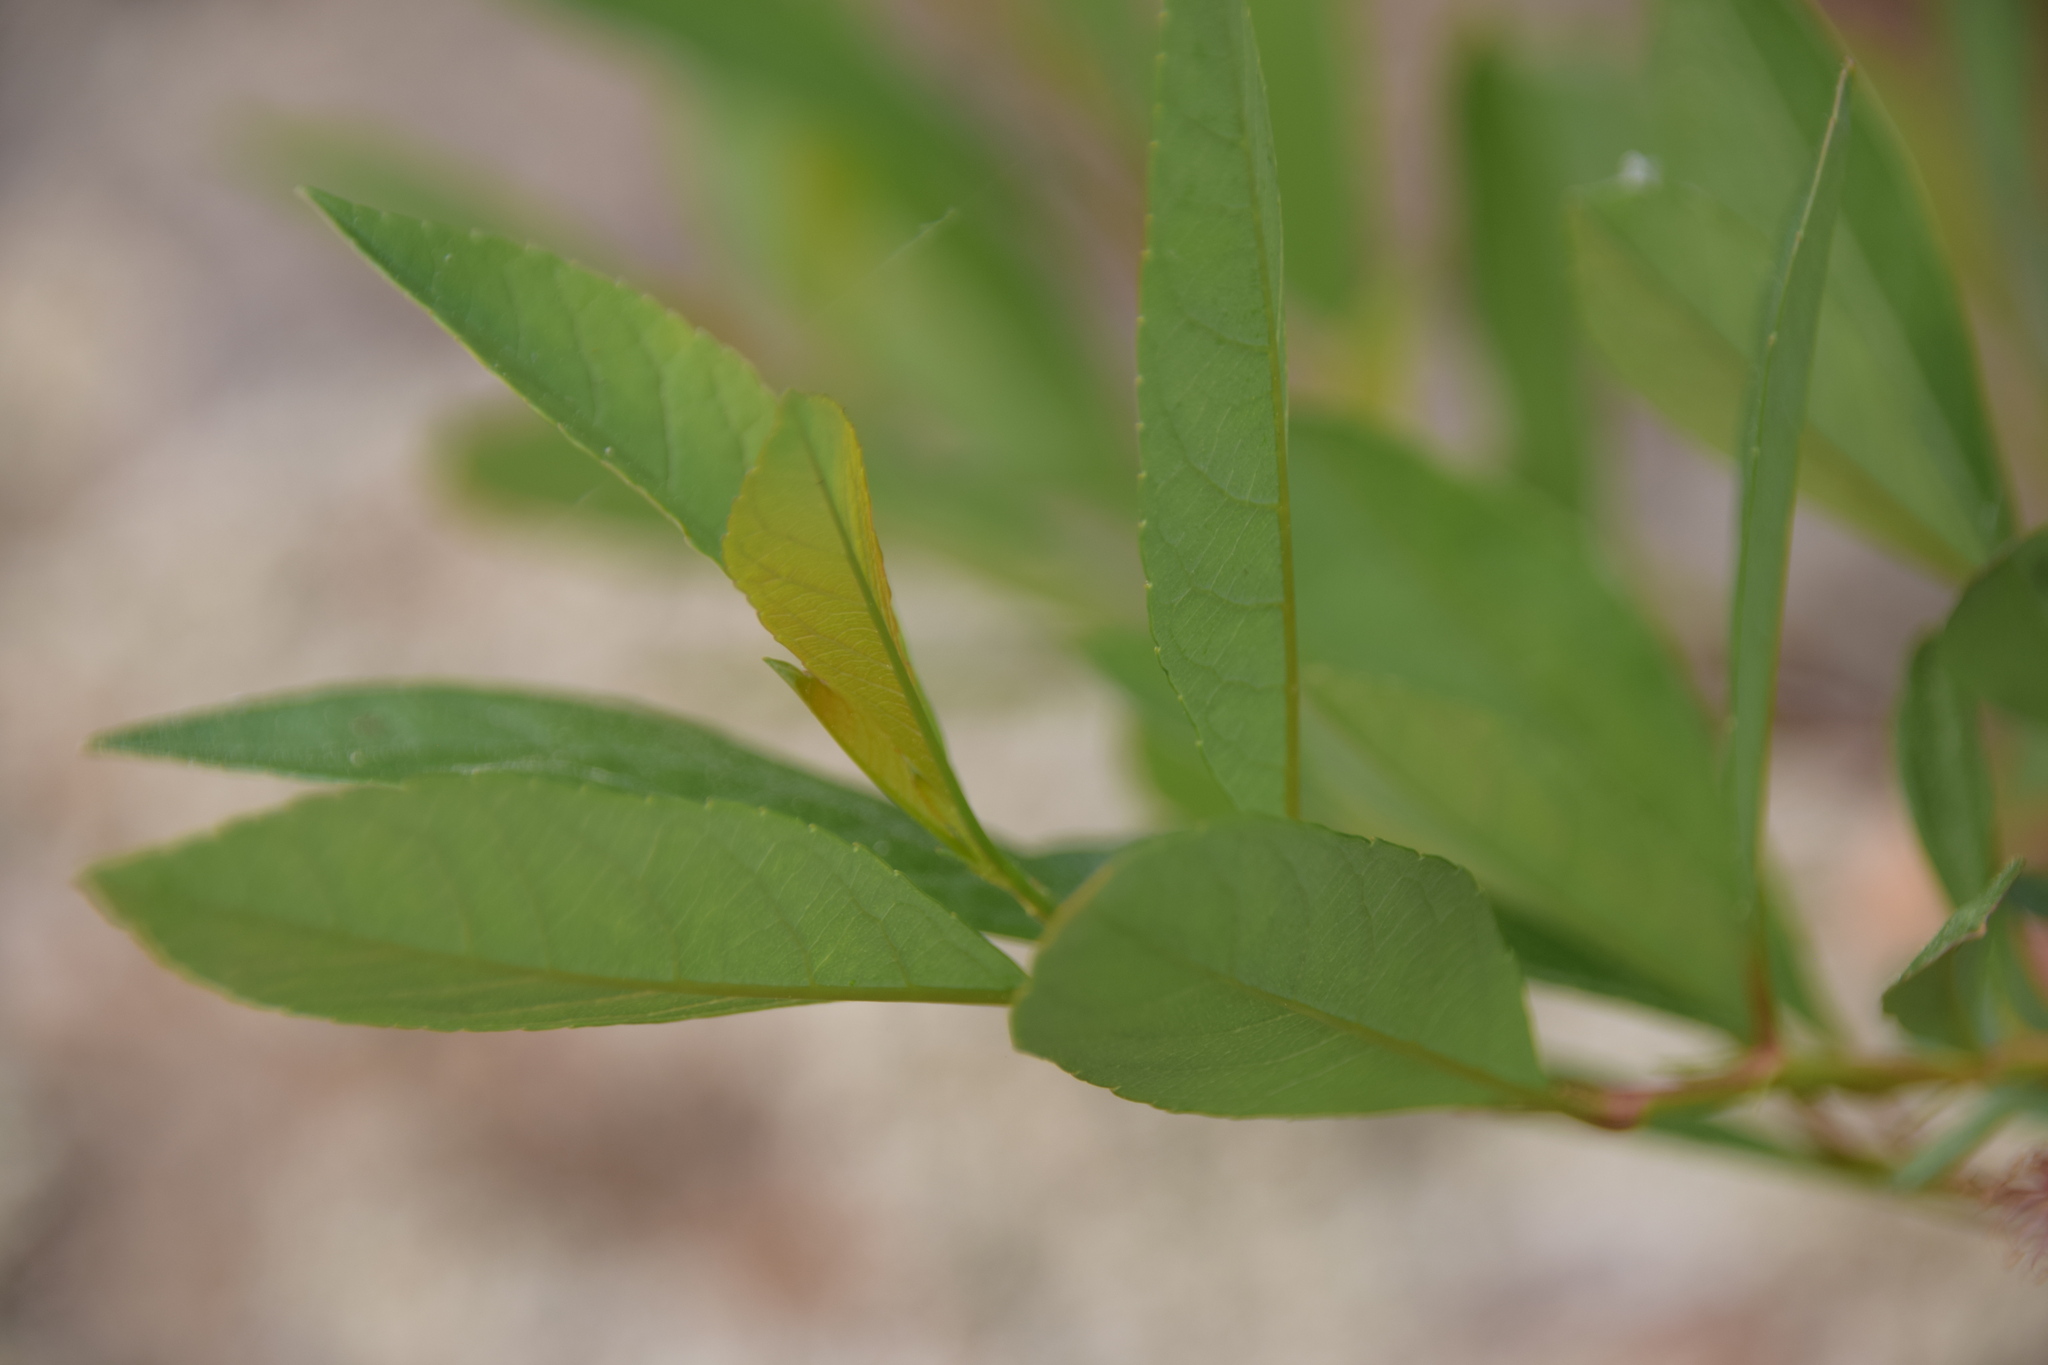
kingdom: Plantae
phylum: Tracheophyta
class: Magnoliopsida
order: Rosales
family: Rosaceae
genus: Prunus
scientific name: Prunus pumila
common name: Dwarf cherry
